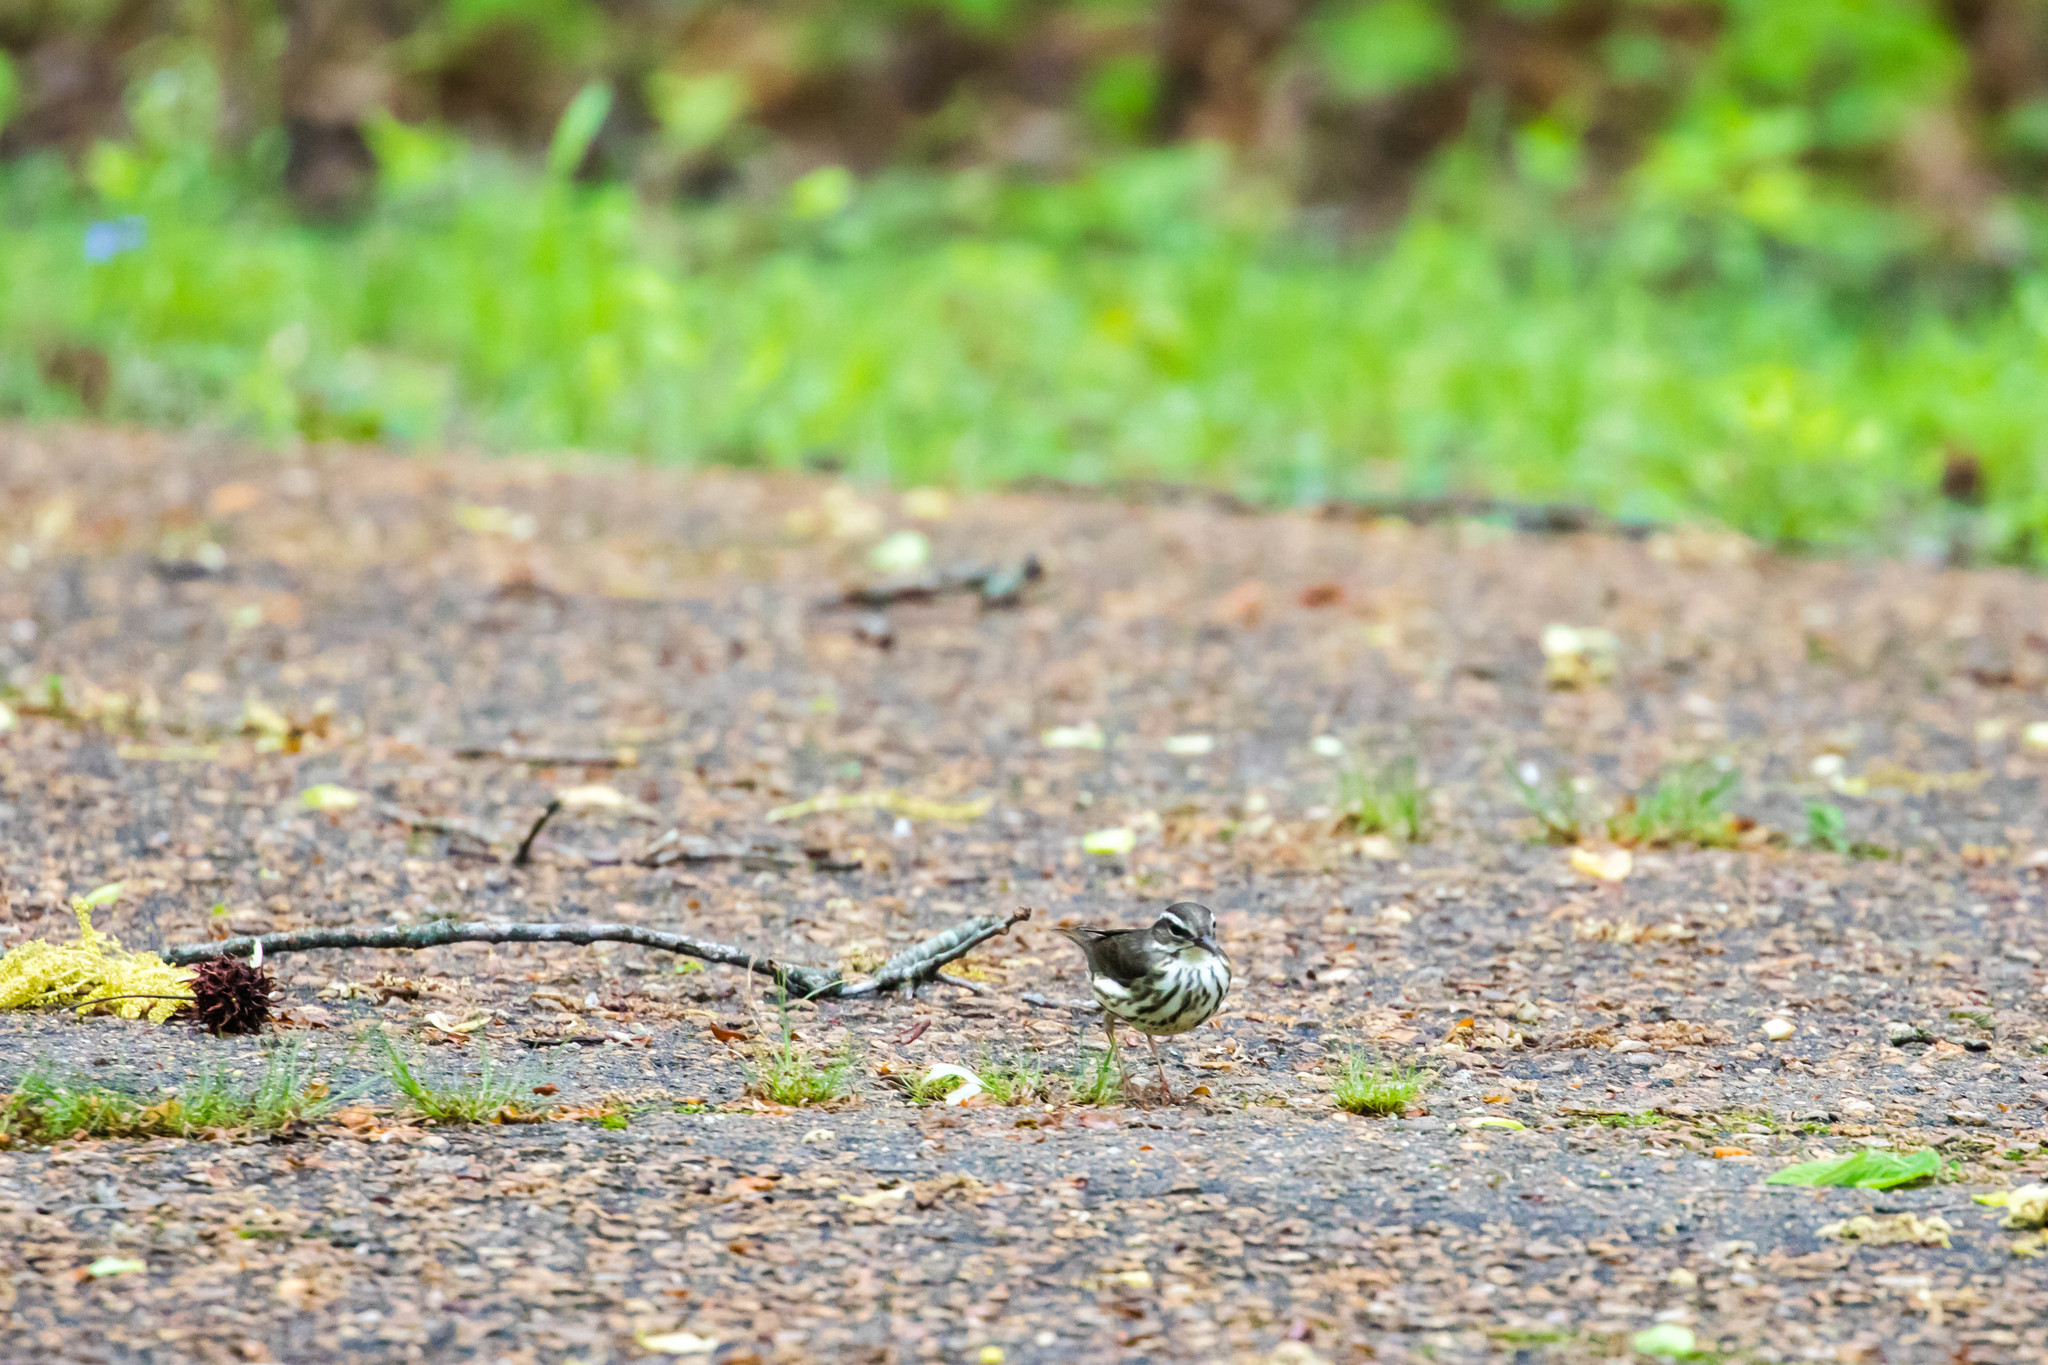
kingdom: Animalia
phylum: Chordata
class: Aves
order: Passeriformes
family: Parulidae
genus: Parkesia
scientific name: Parkesia motacilla
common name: Louisiana waterthrush
